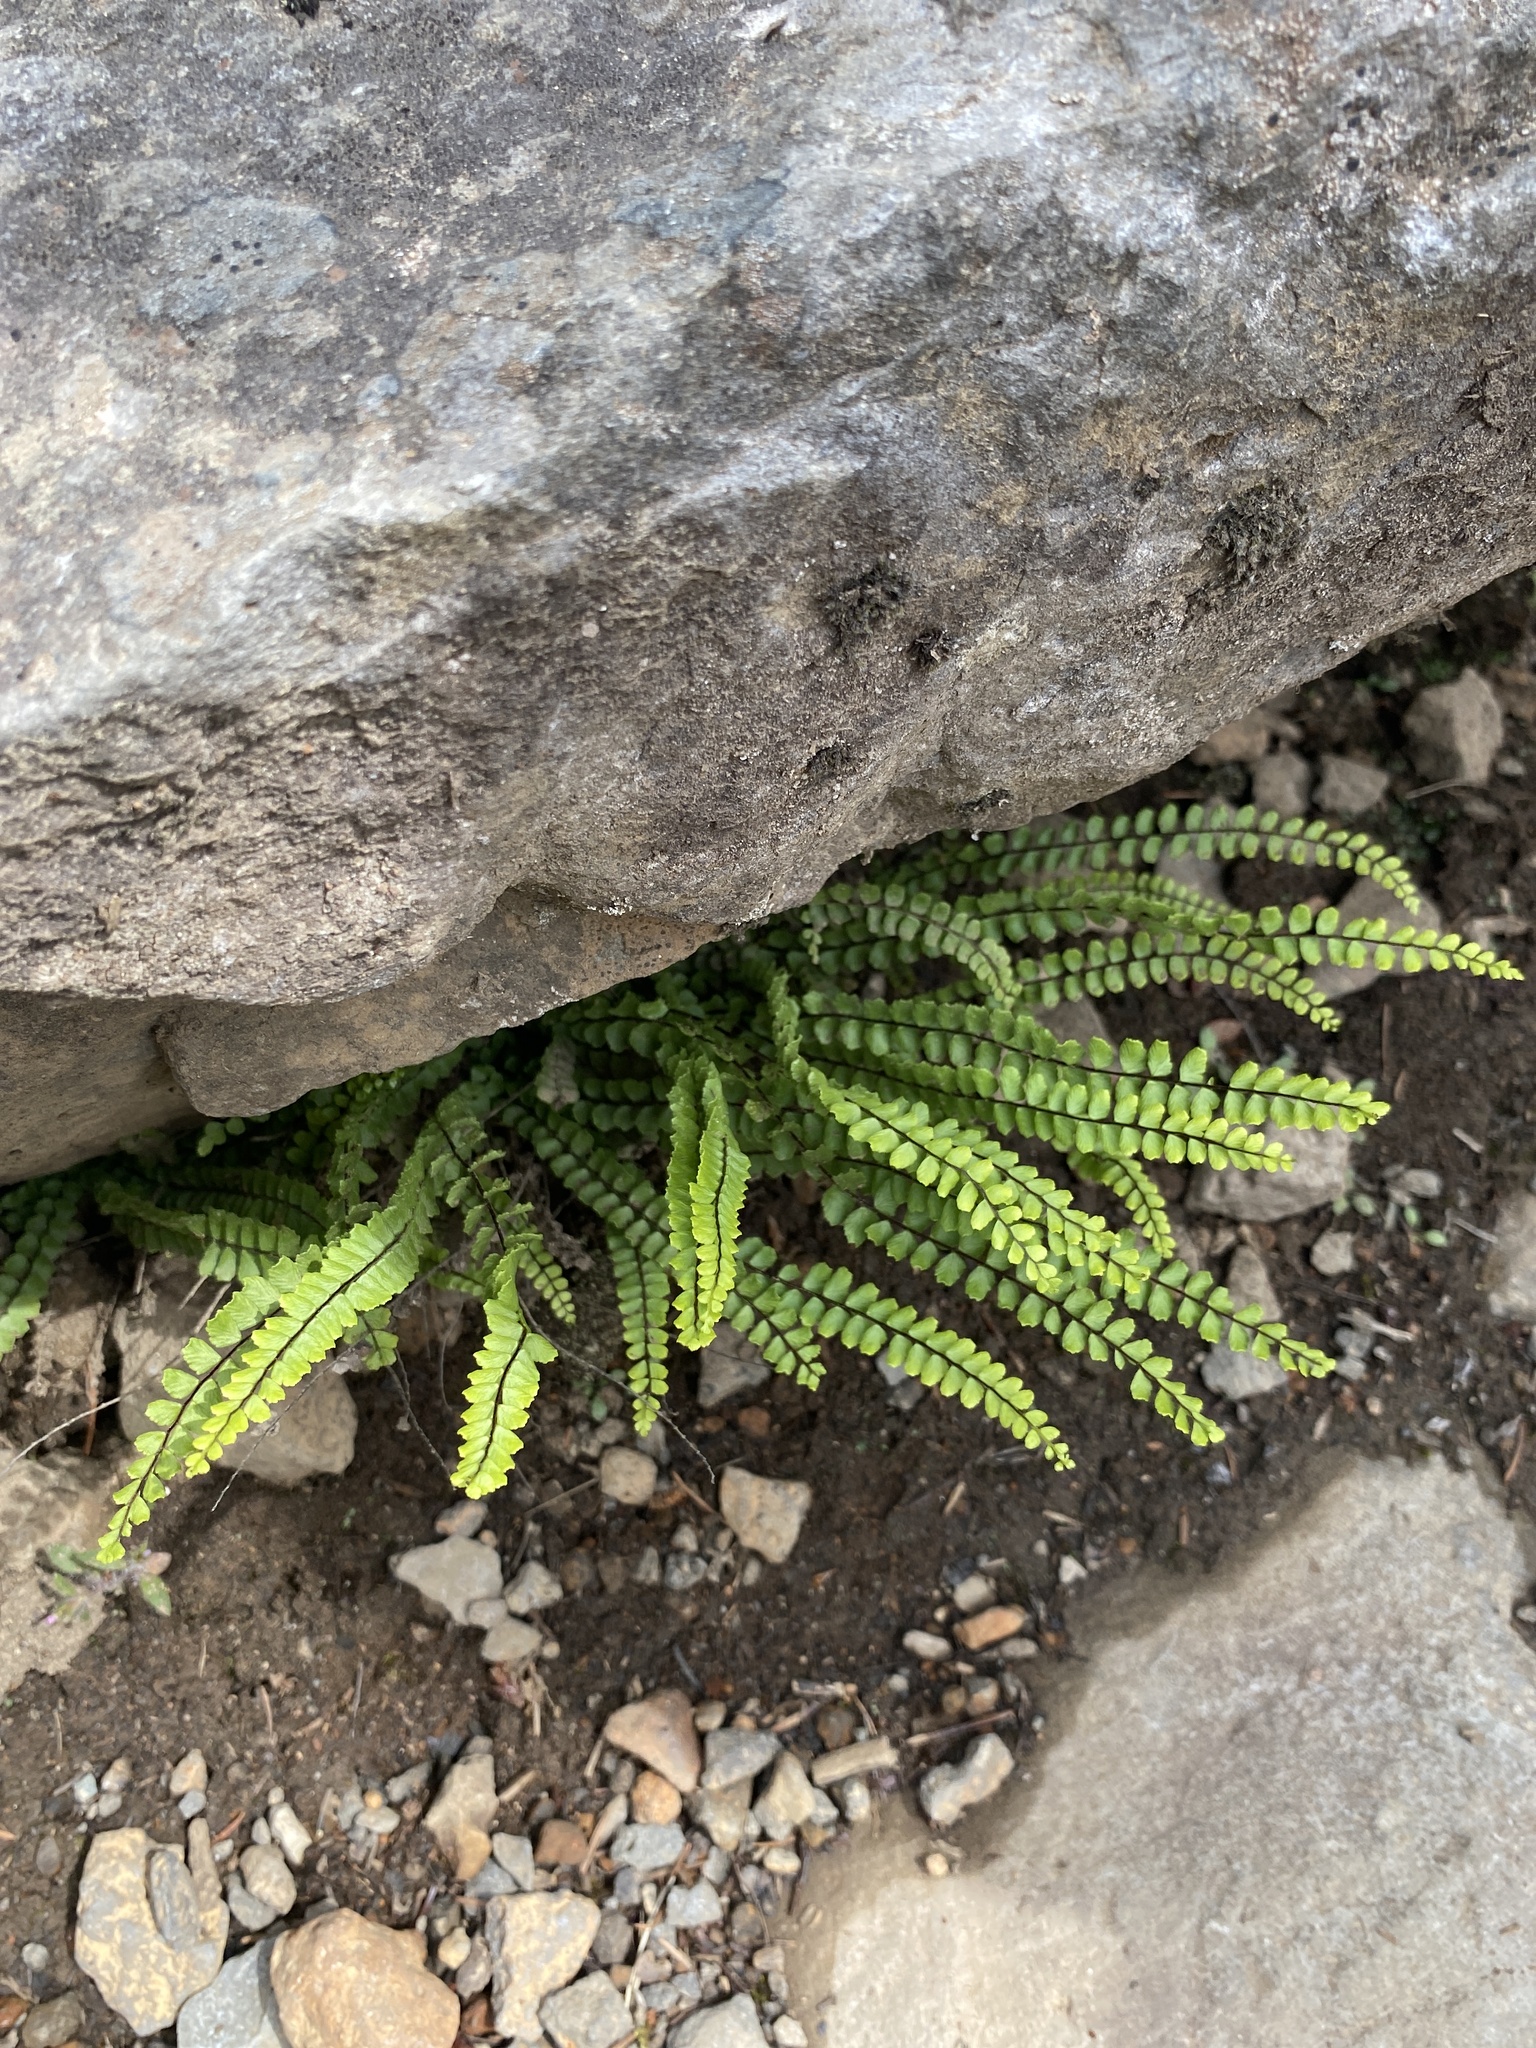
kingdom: Plantae
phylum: Tracheophyta
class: Polypodiopsida
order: Polypodiales
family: Aspleniaceae
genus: Asplenium
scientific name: Asplenium trichomanes
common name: Maidenhair spleenwort
